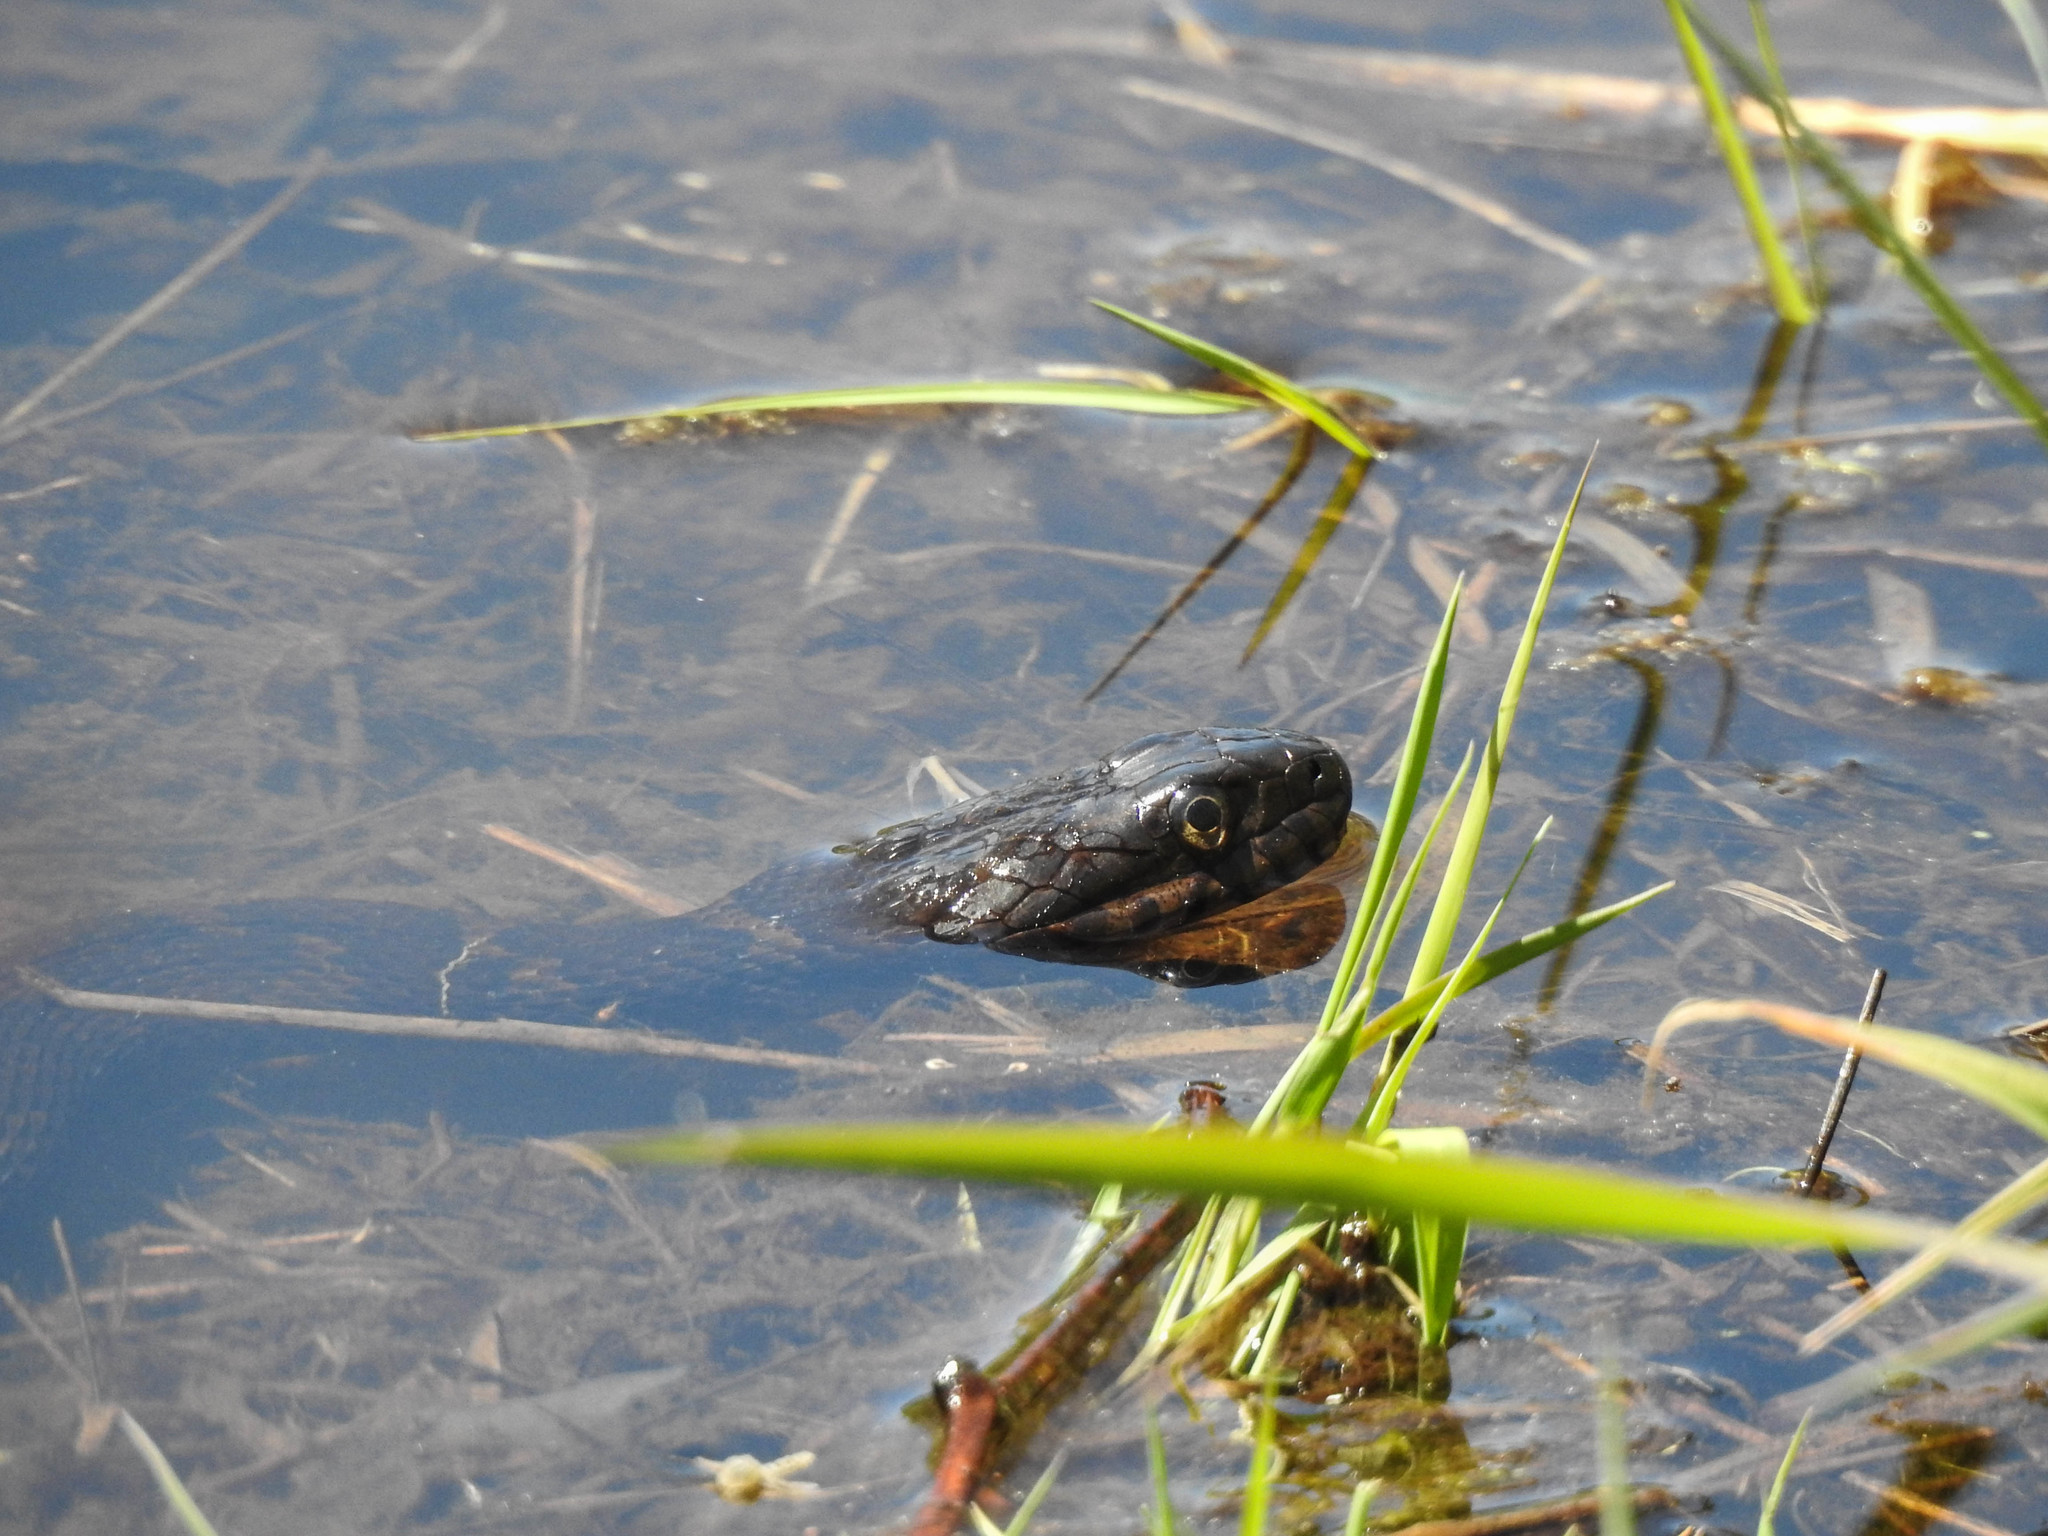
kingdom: Animalia
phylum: Chordata
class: Squamata
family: Colubridae
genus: Nerodia
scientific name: Nerodia sipedon
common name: Northern water snake
